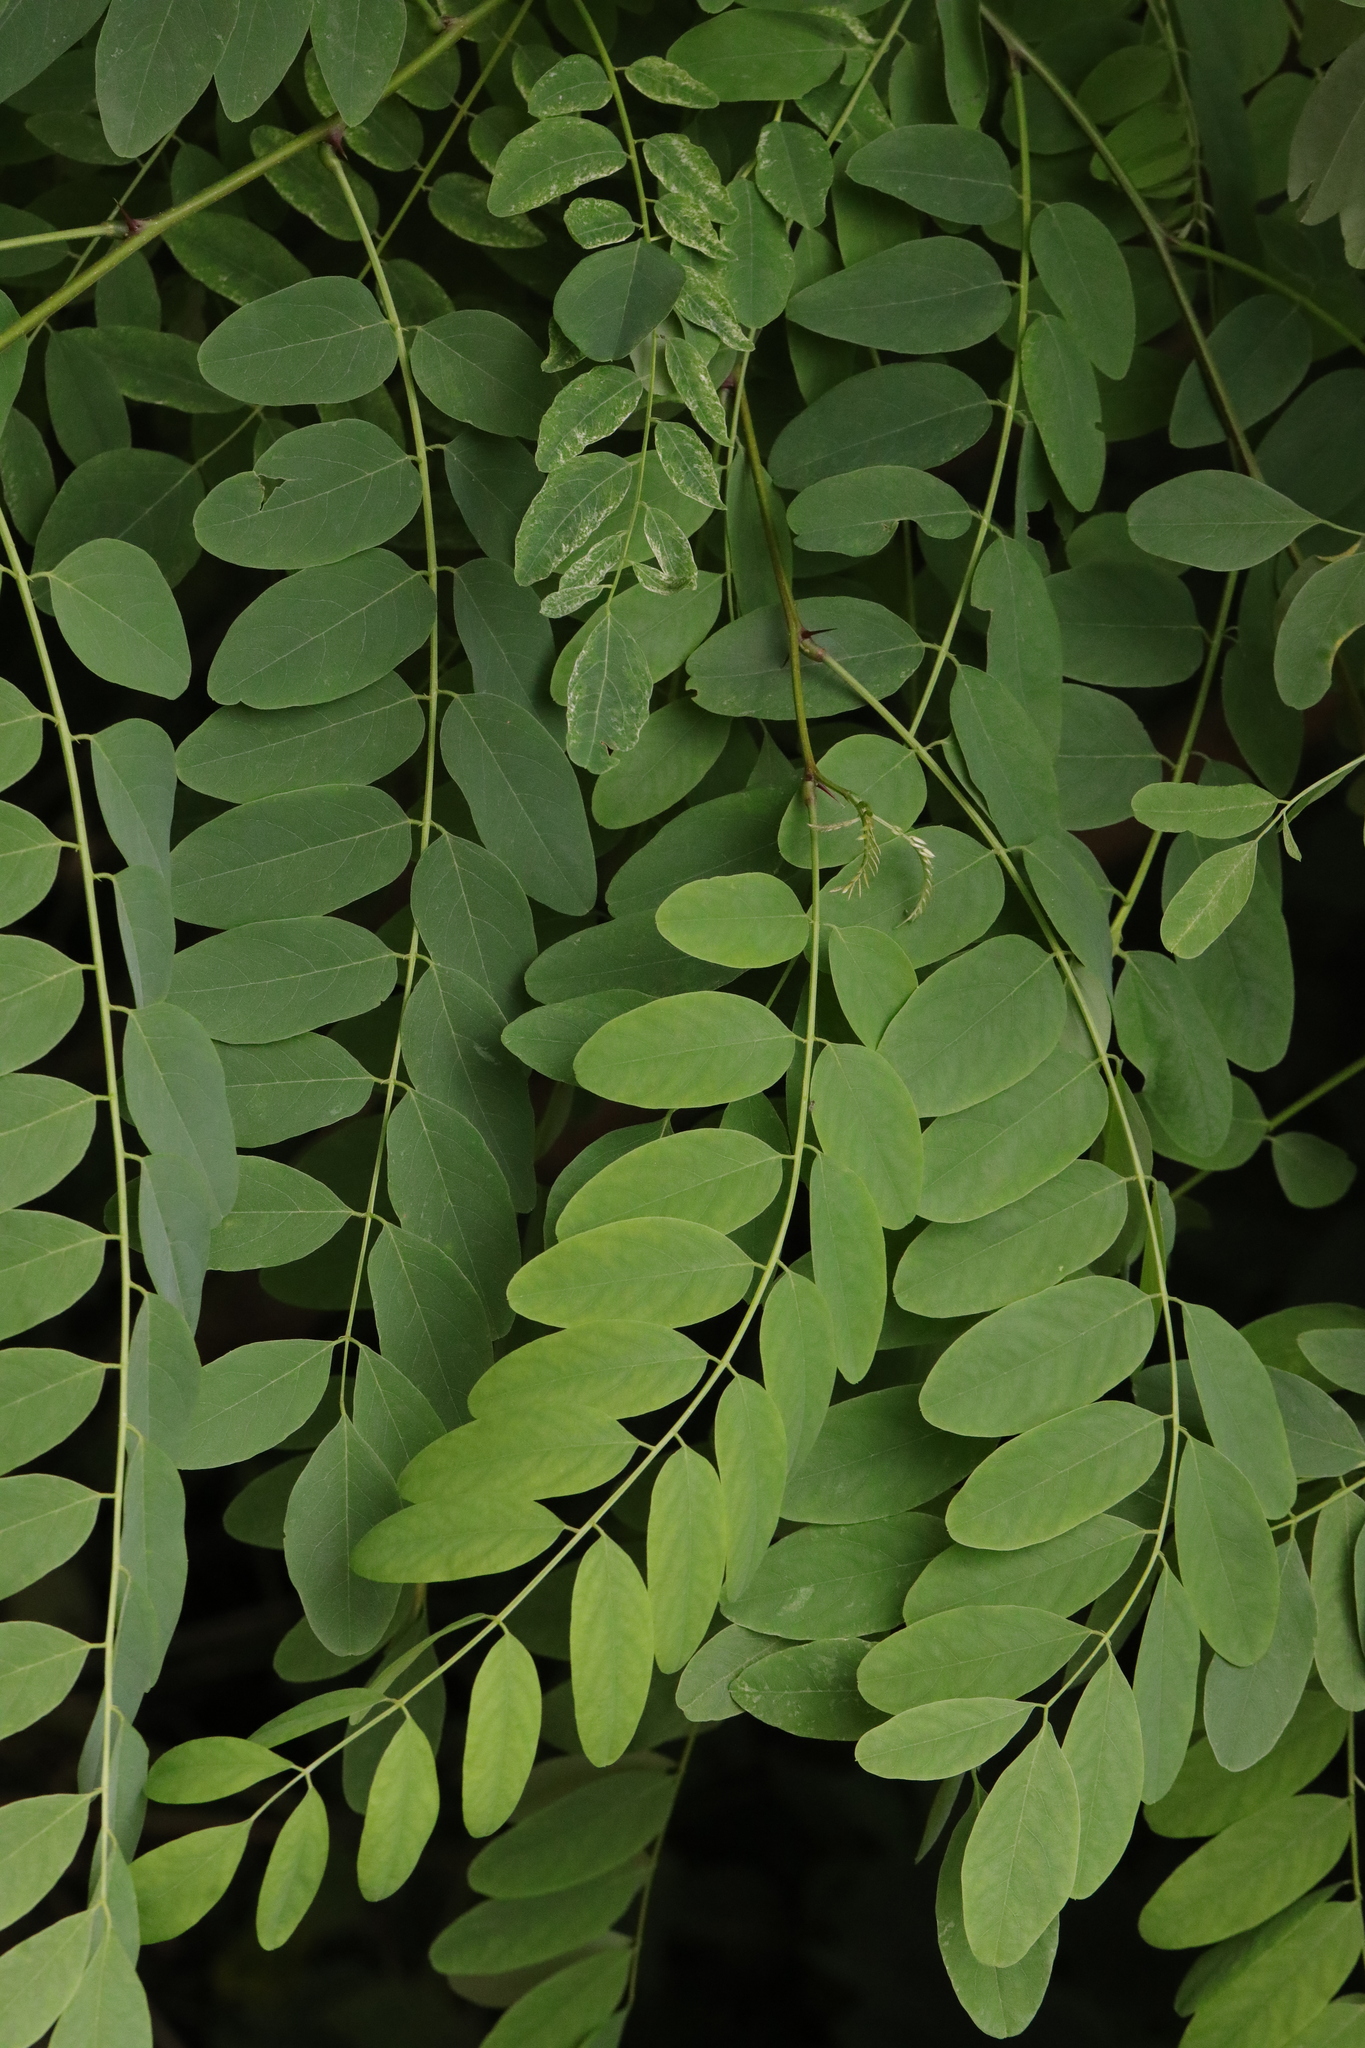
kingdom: Plantae
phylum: Tracheophyta
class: Magnoliopsida
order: Fabales
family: Fabaceae
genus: Robinia
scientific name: Robinia pseudoacacia
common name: Black locust
